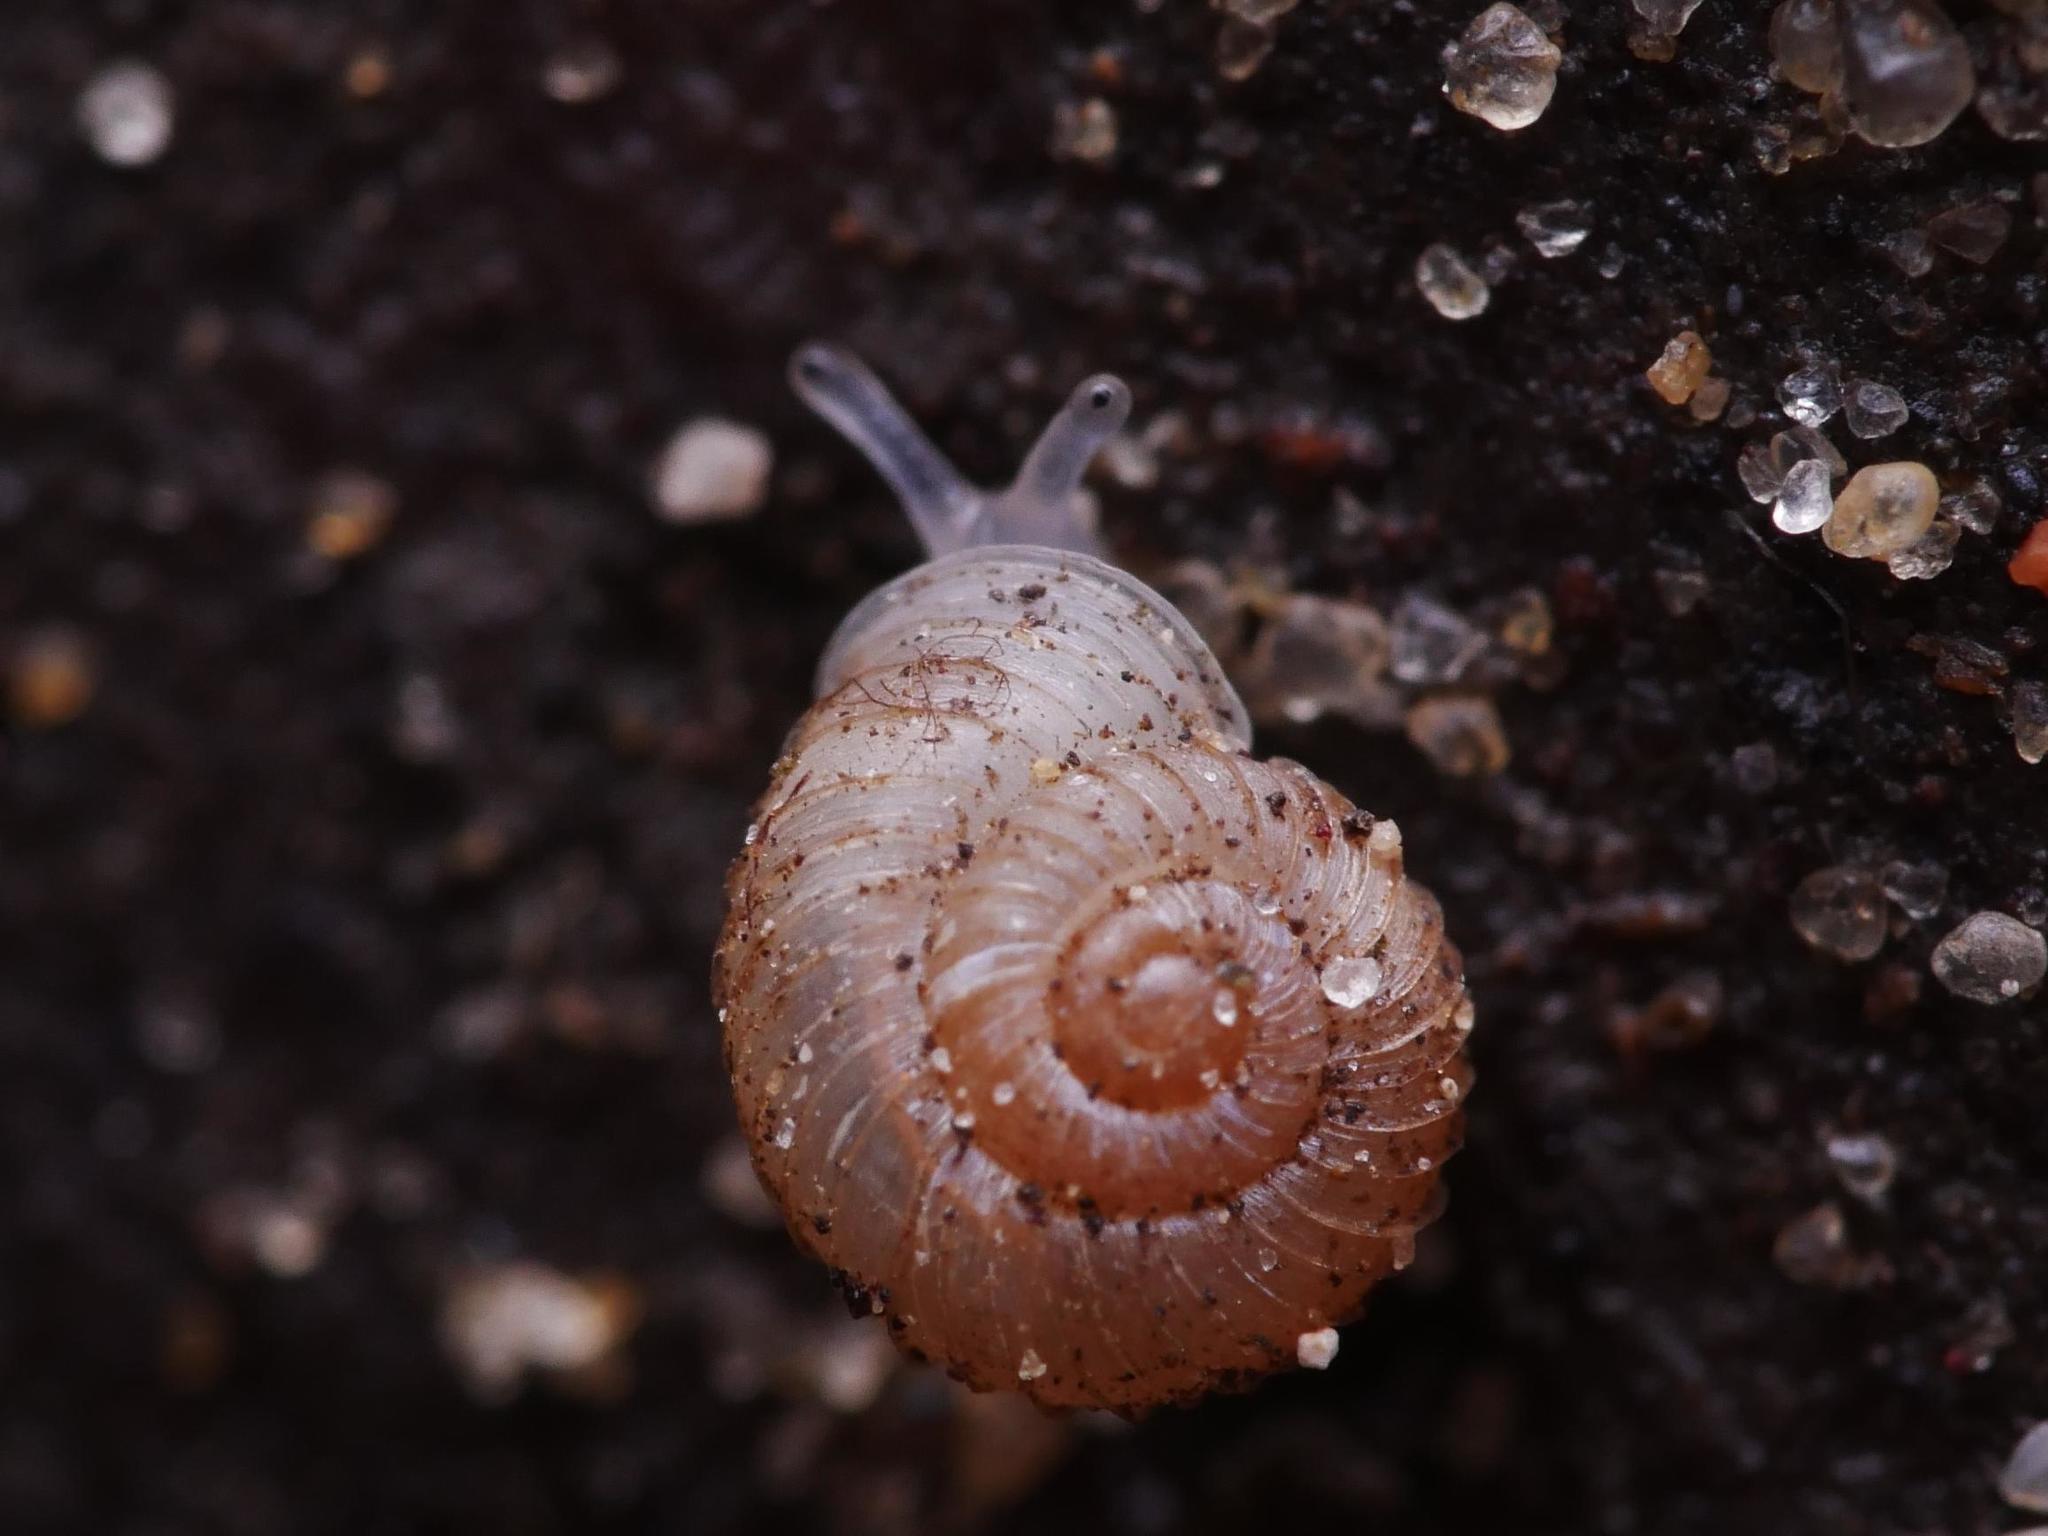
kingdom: Animalia
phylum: Mollusca
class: Gastropoda
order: Stylommatophora
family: Valloniidae
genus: Vallonia
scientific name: Vallonia costata
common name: Ribbed grass snail
